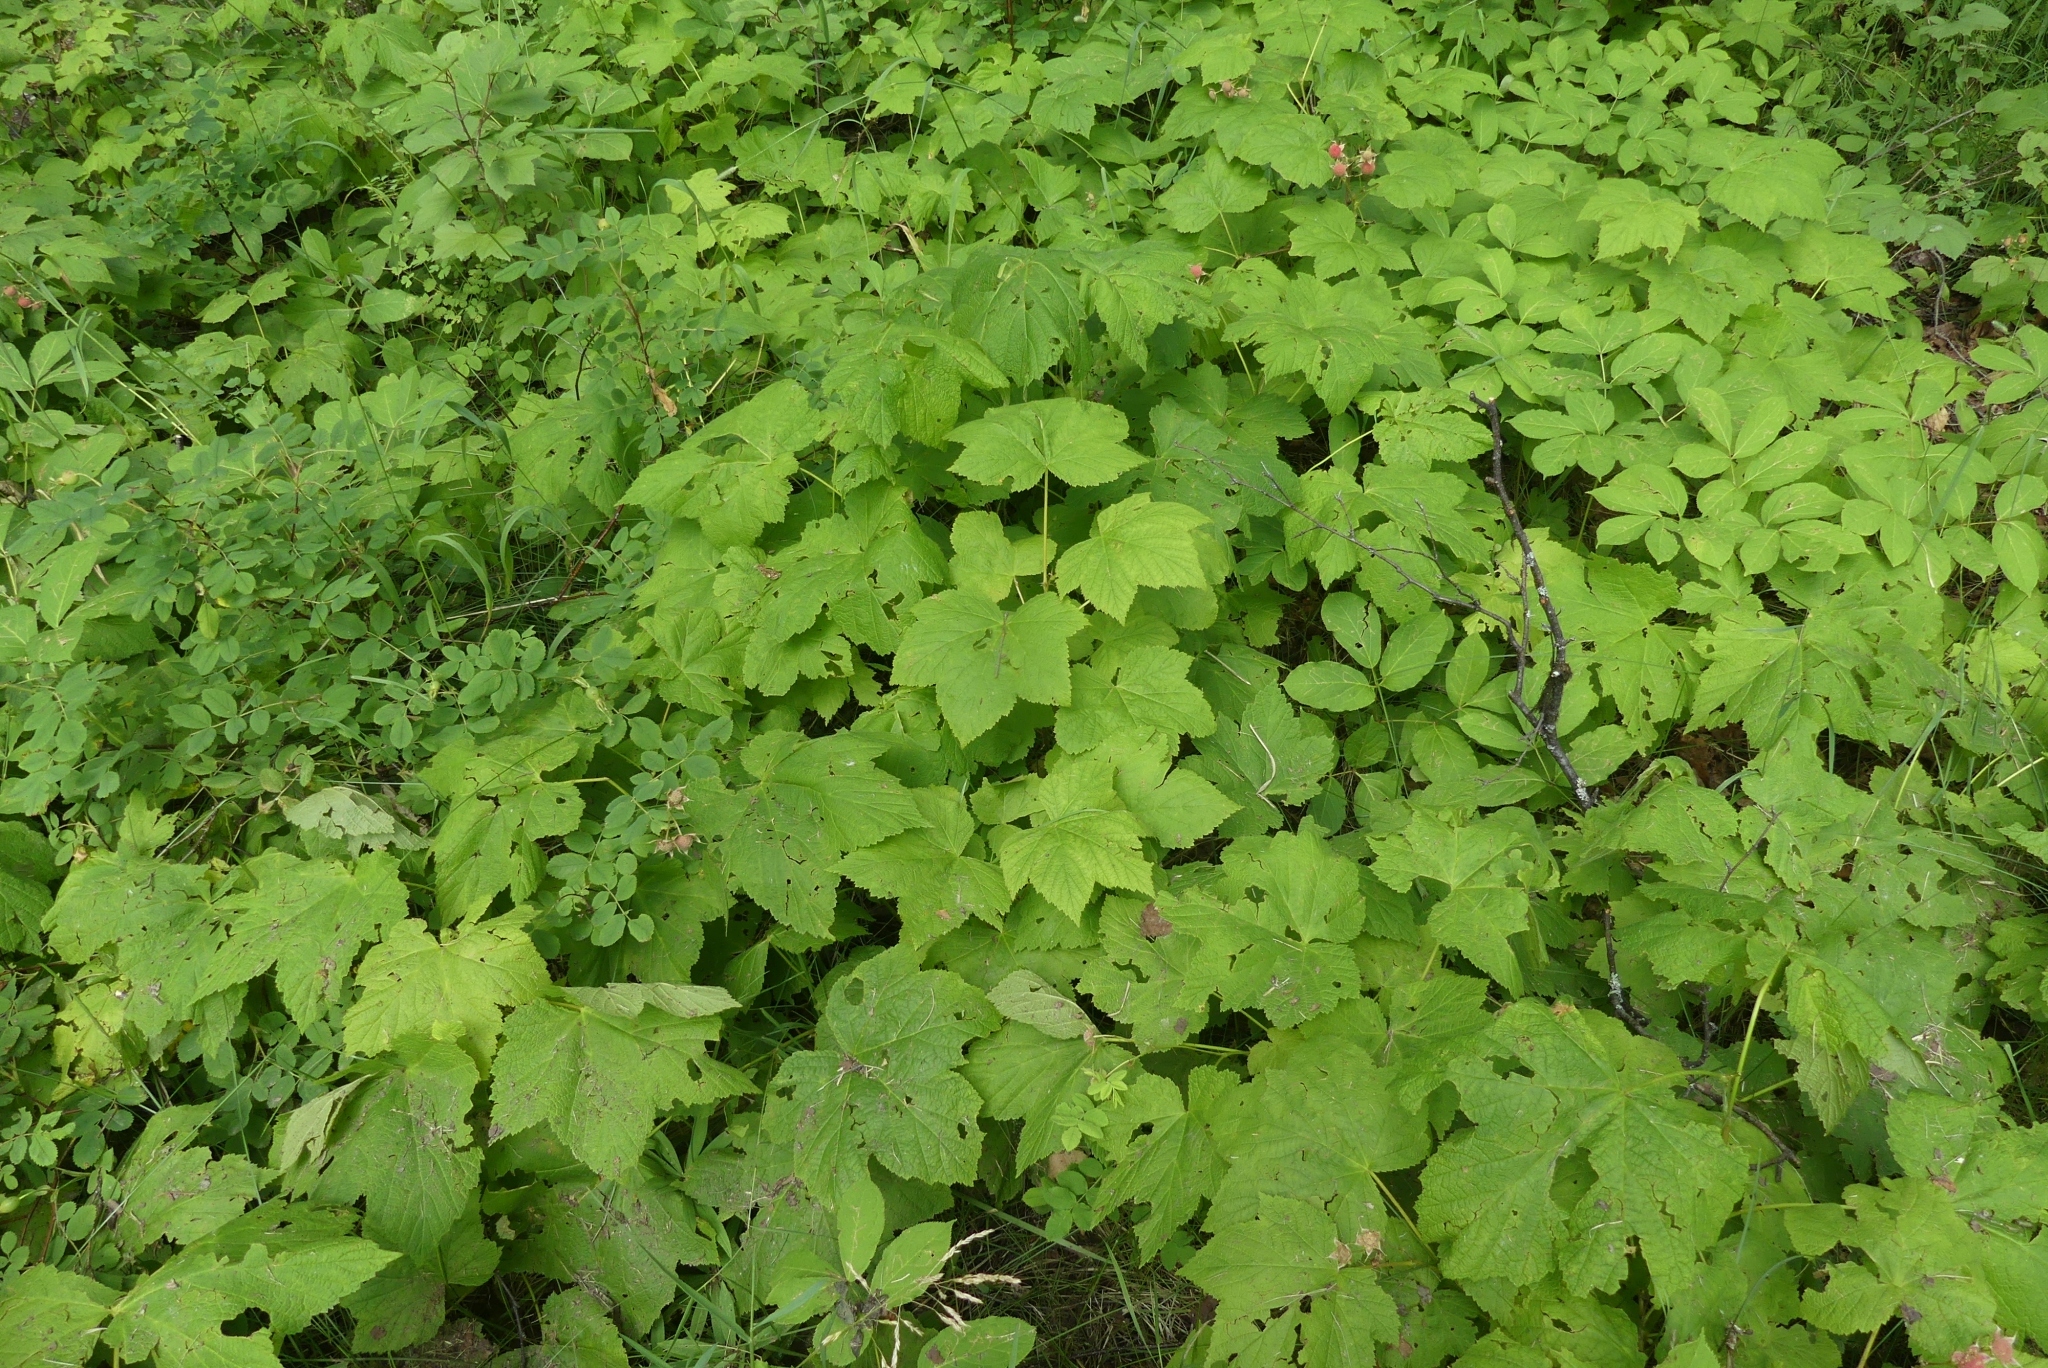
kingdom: Plantae
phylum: Tracheophyta
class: Magnoliopsida
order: Rosales
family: Rosaceae
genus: Rubus
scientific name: Rubus parviflorus
